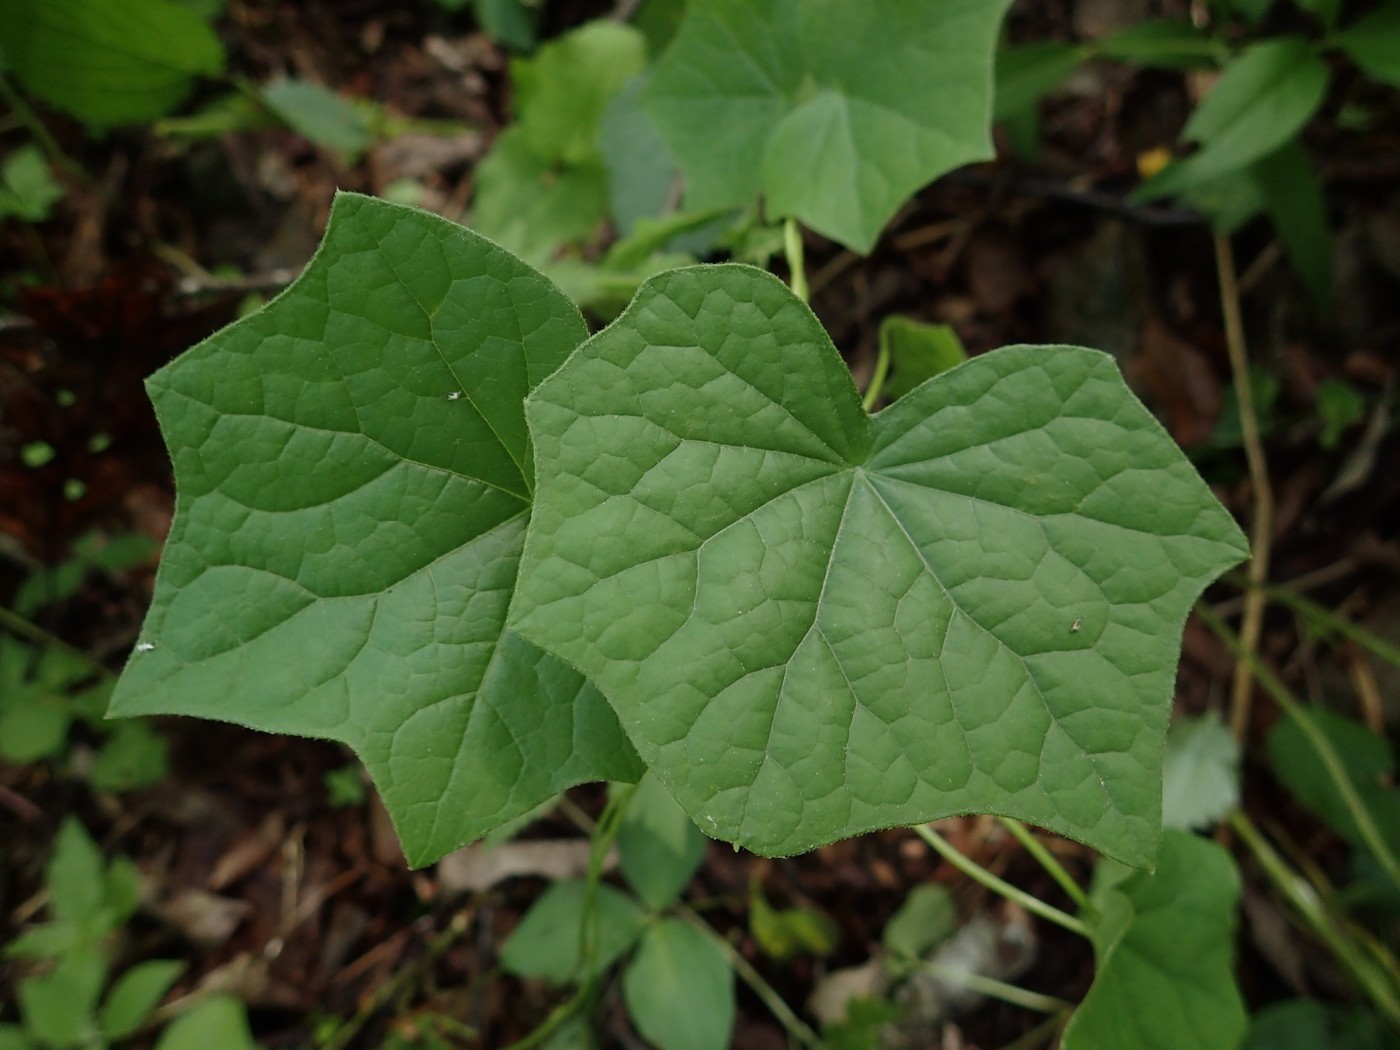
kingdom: Plantae
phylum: Tracheophyta
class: Magnoliopsida
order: Ranunculales
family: Menispermaceae
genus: Menispermum
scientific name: Menispermum canadense
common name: Moonseed
